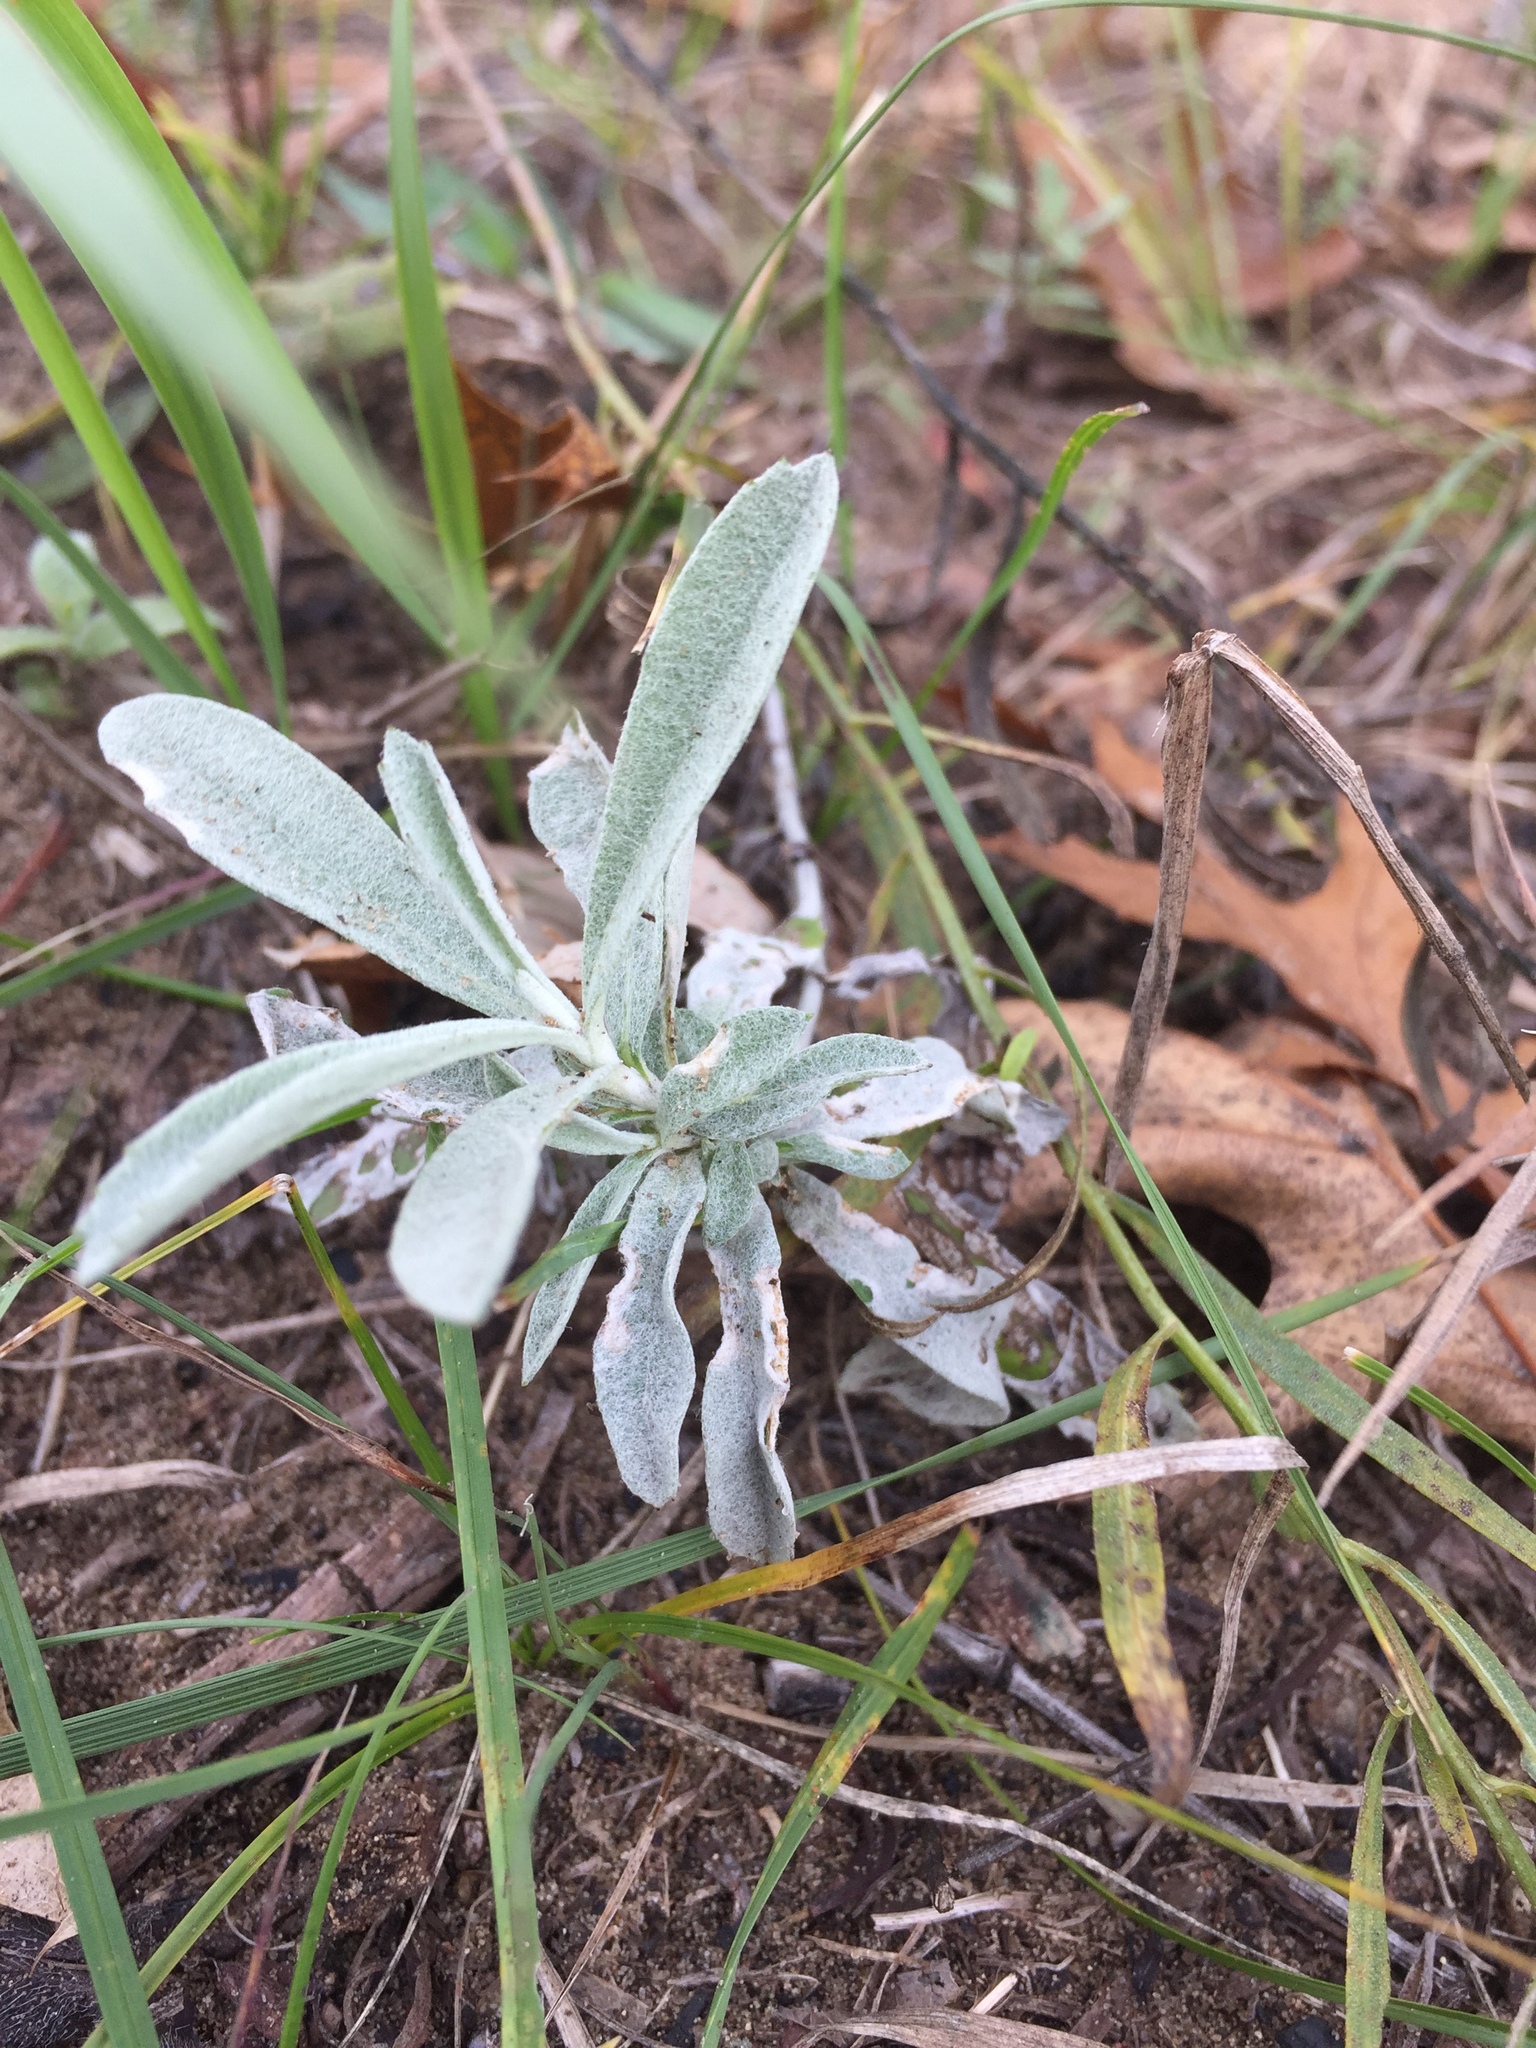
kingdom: Plantae
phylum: Tracheophyta
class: Magnoliopsida
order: Asterales
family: Asteraceae
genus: Artemisia
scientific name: Artemisia ludoviciana
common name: Western mugwort
